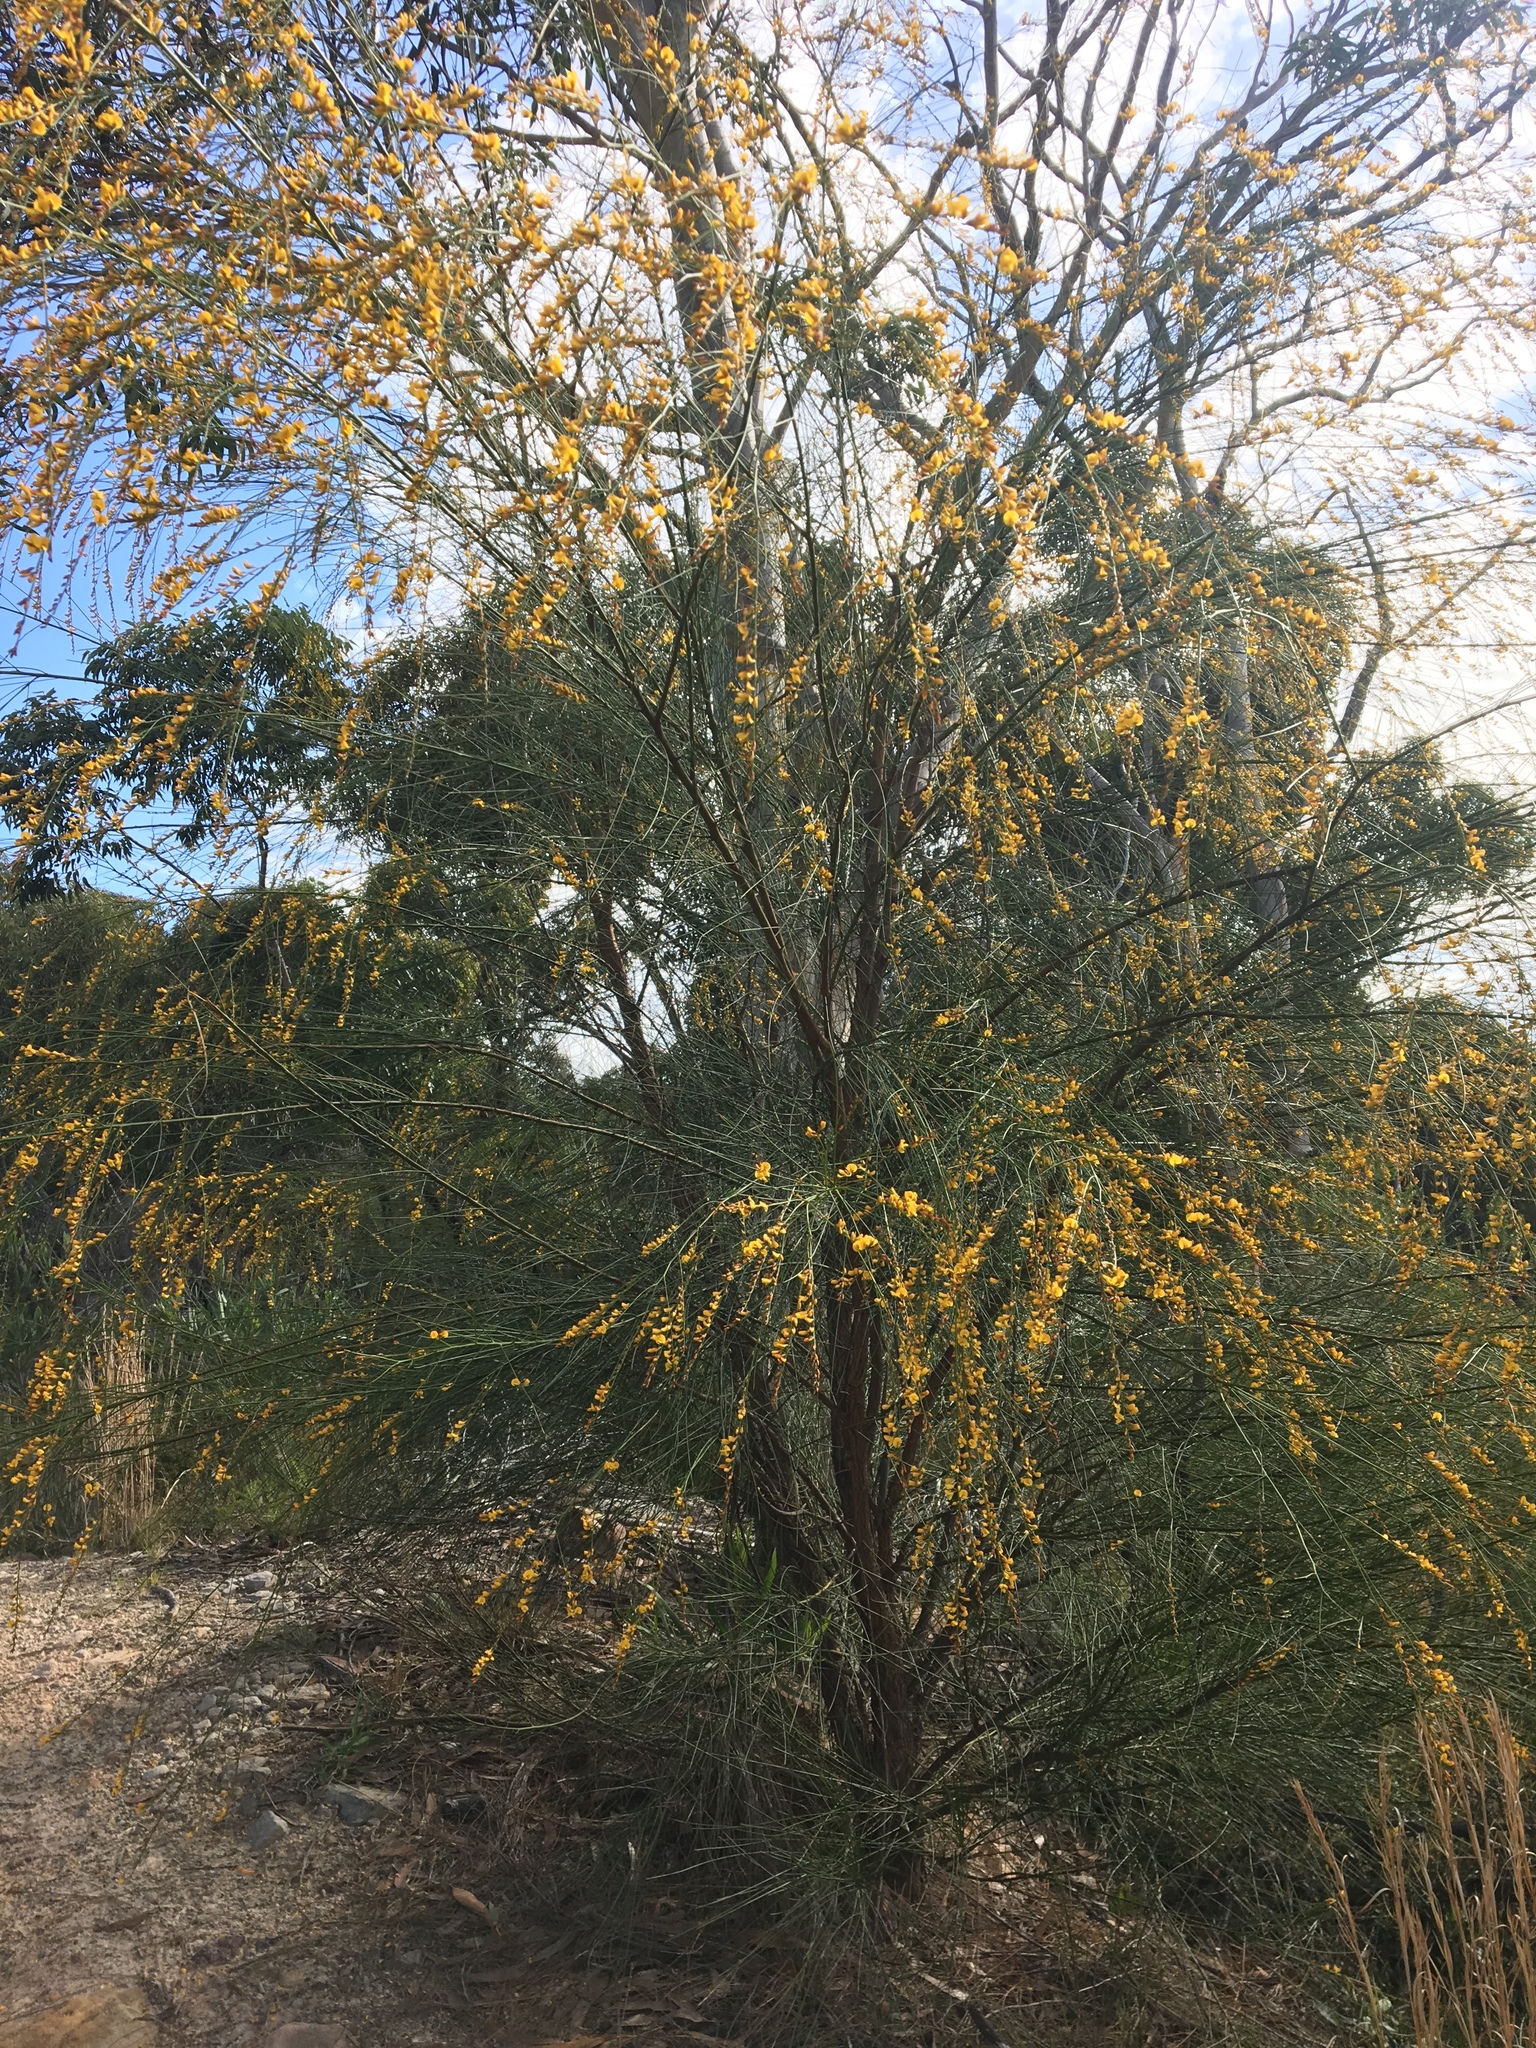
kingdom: Plantae
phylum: Tracheophyta
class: Magnoliopsida
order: Fabales
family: Fabaceae
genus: Viminaria
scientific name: Viminaria juncea
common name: Golden spray
